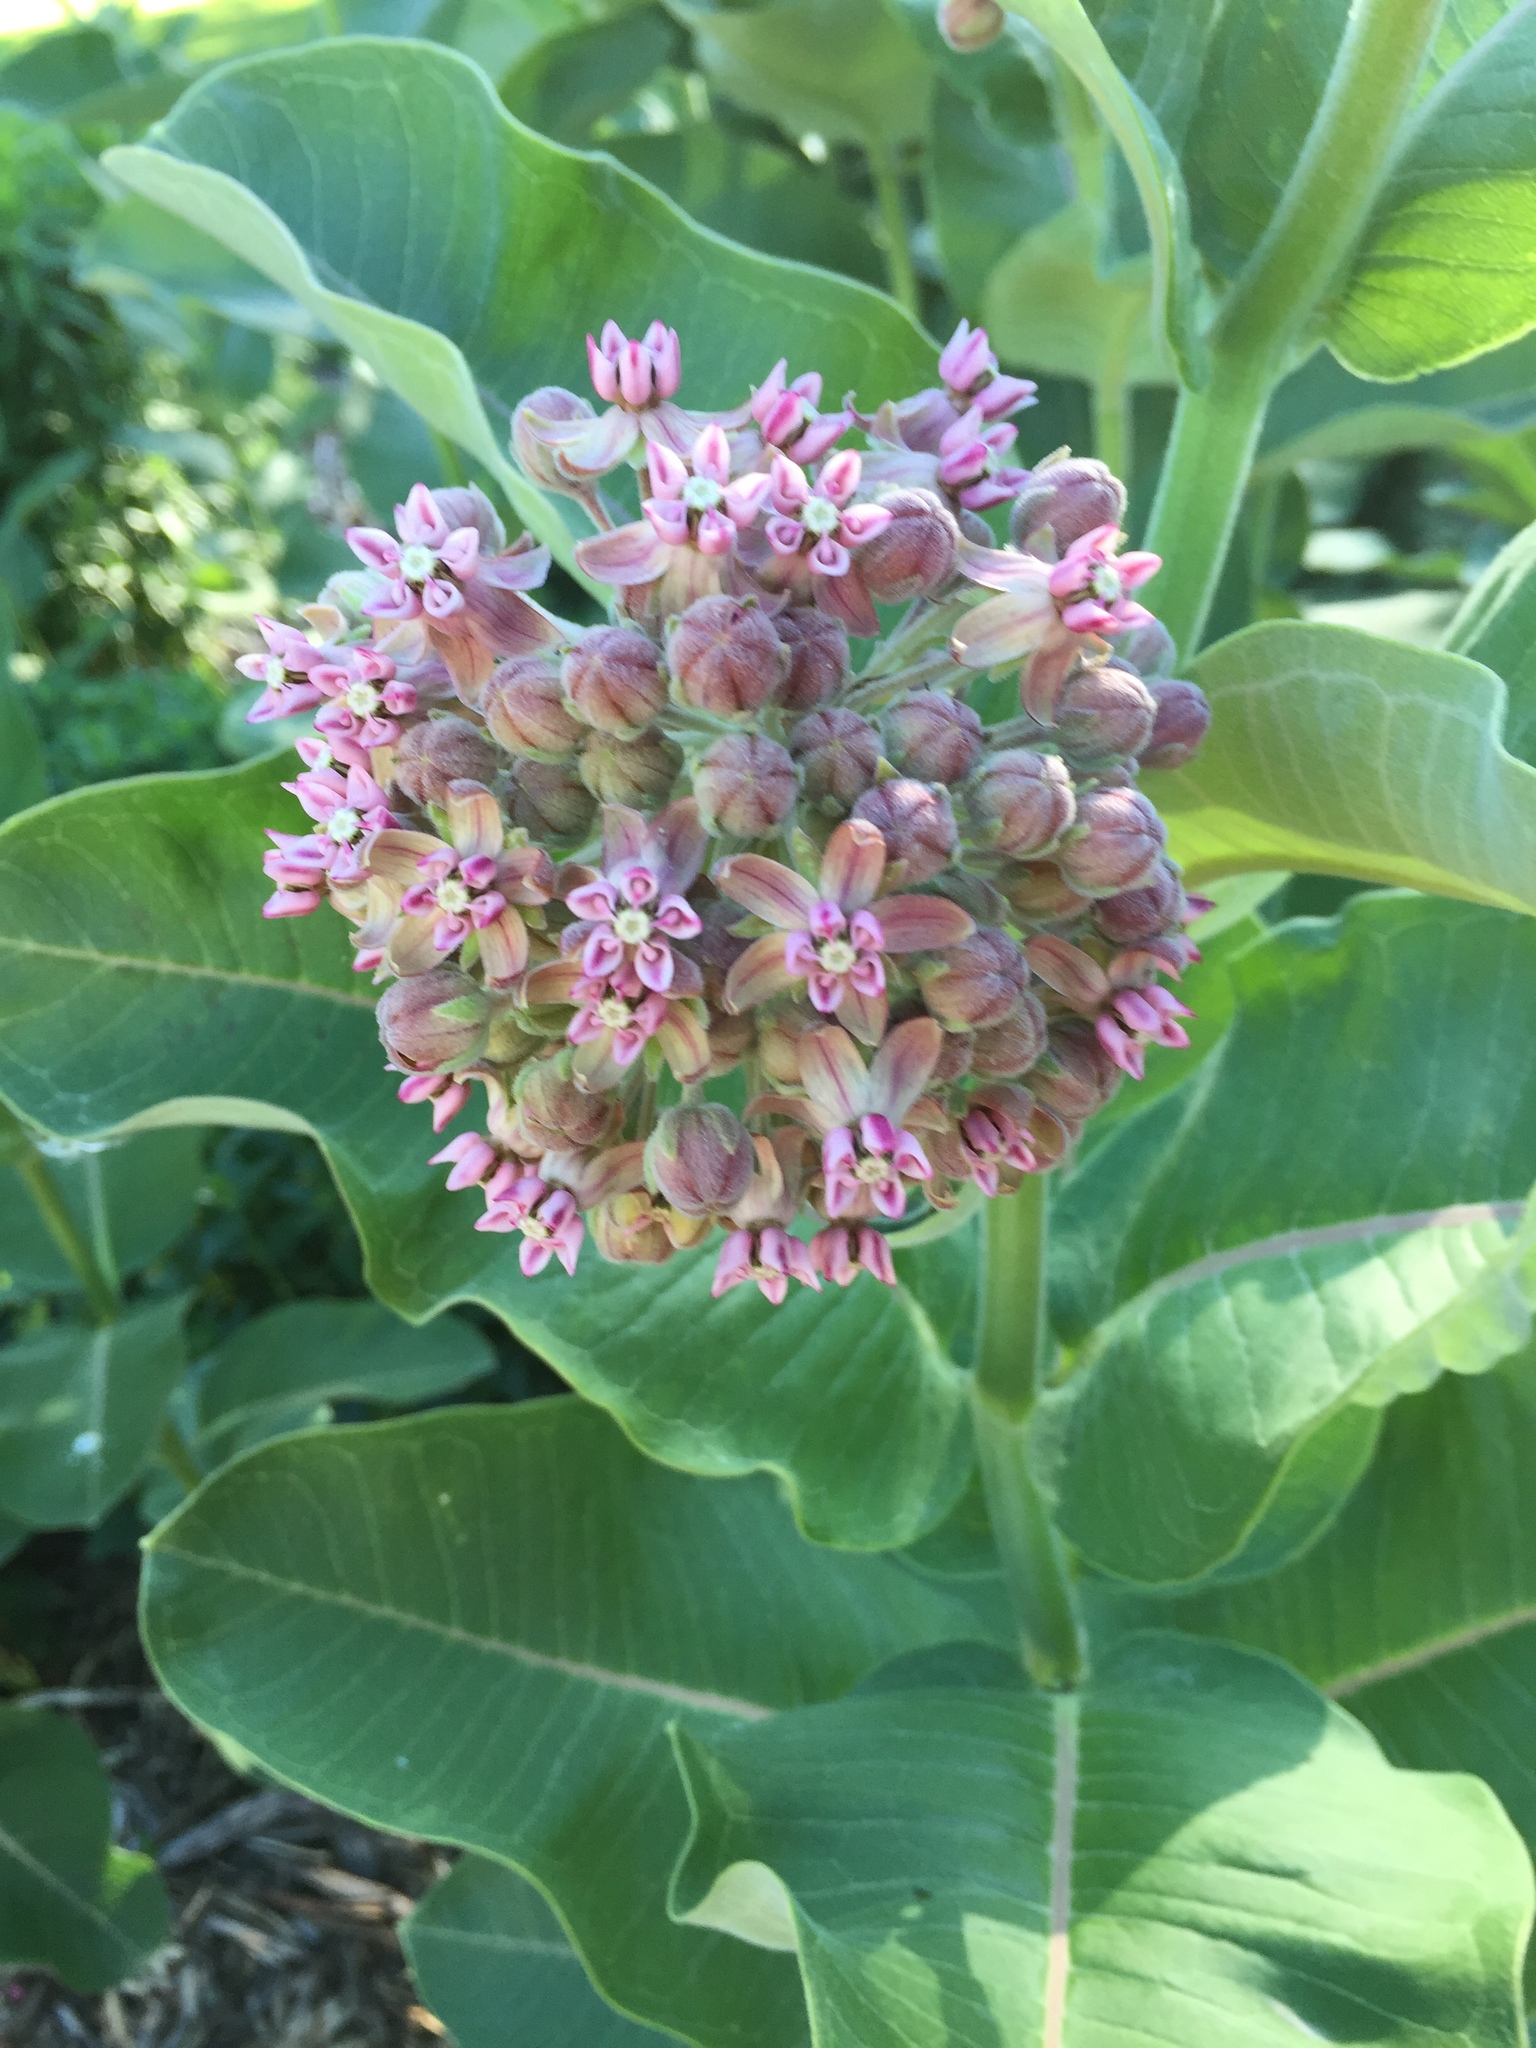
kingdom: Plantae
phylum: Tracheophyta
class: Magnoliopsida
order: Gentianales
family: Apocynaceae
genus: Asclepias
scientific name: Asclepias syriaca
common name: Common milkweed
